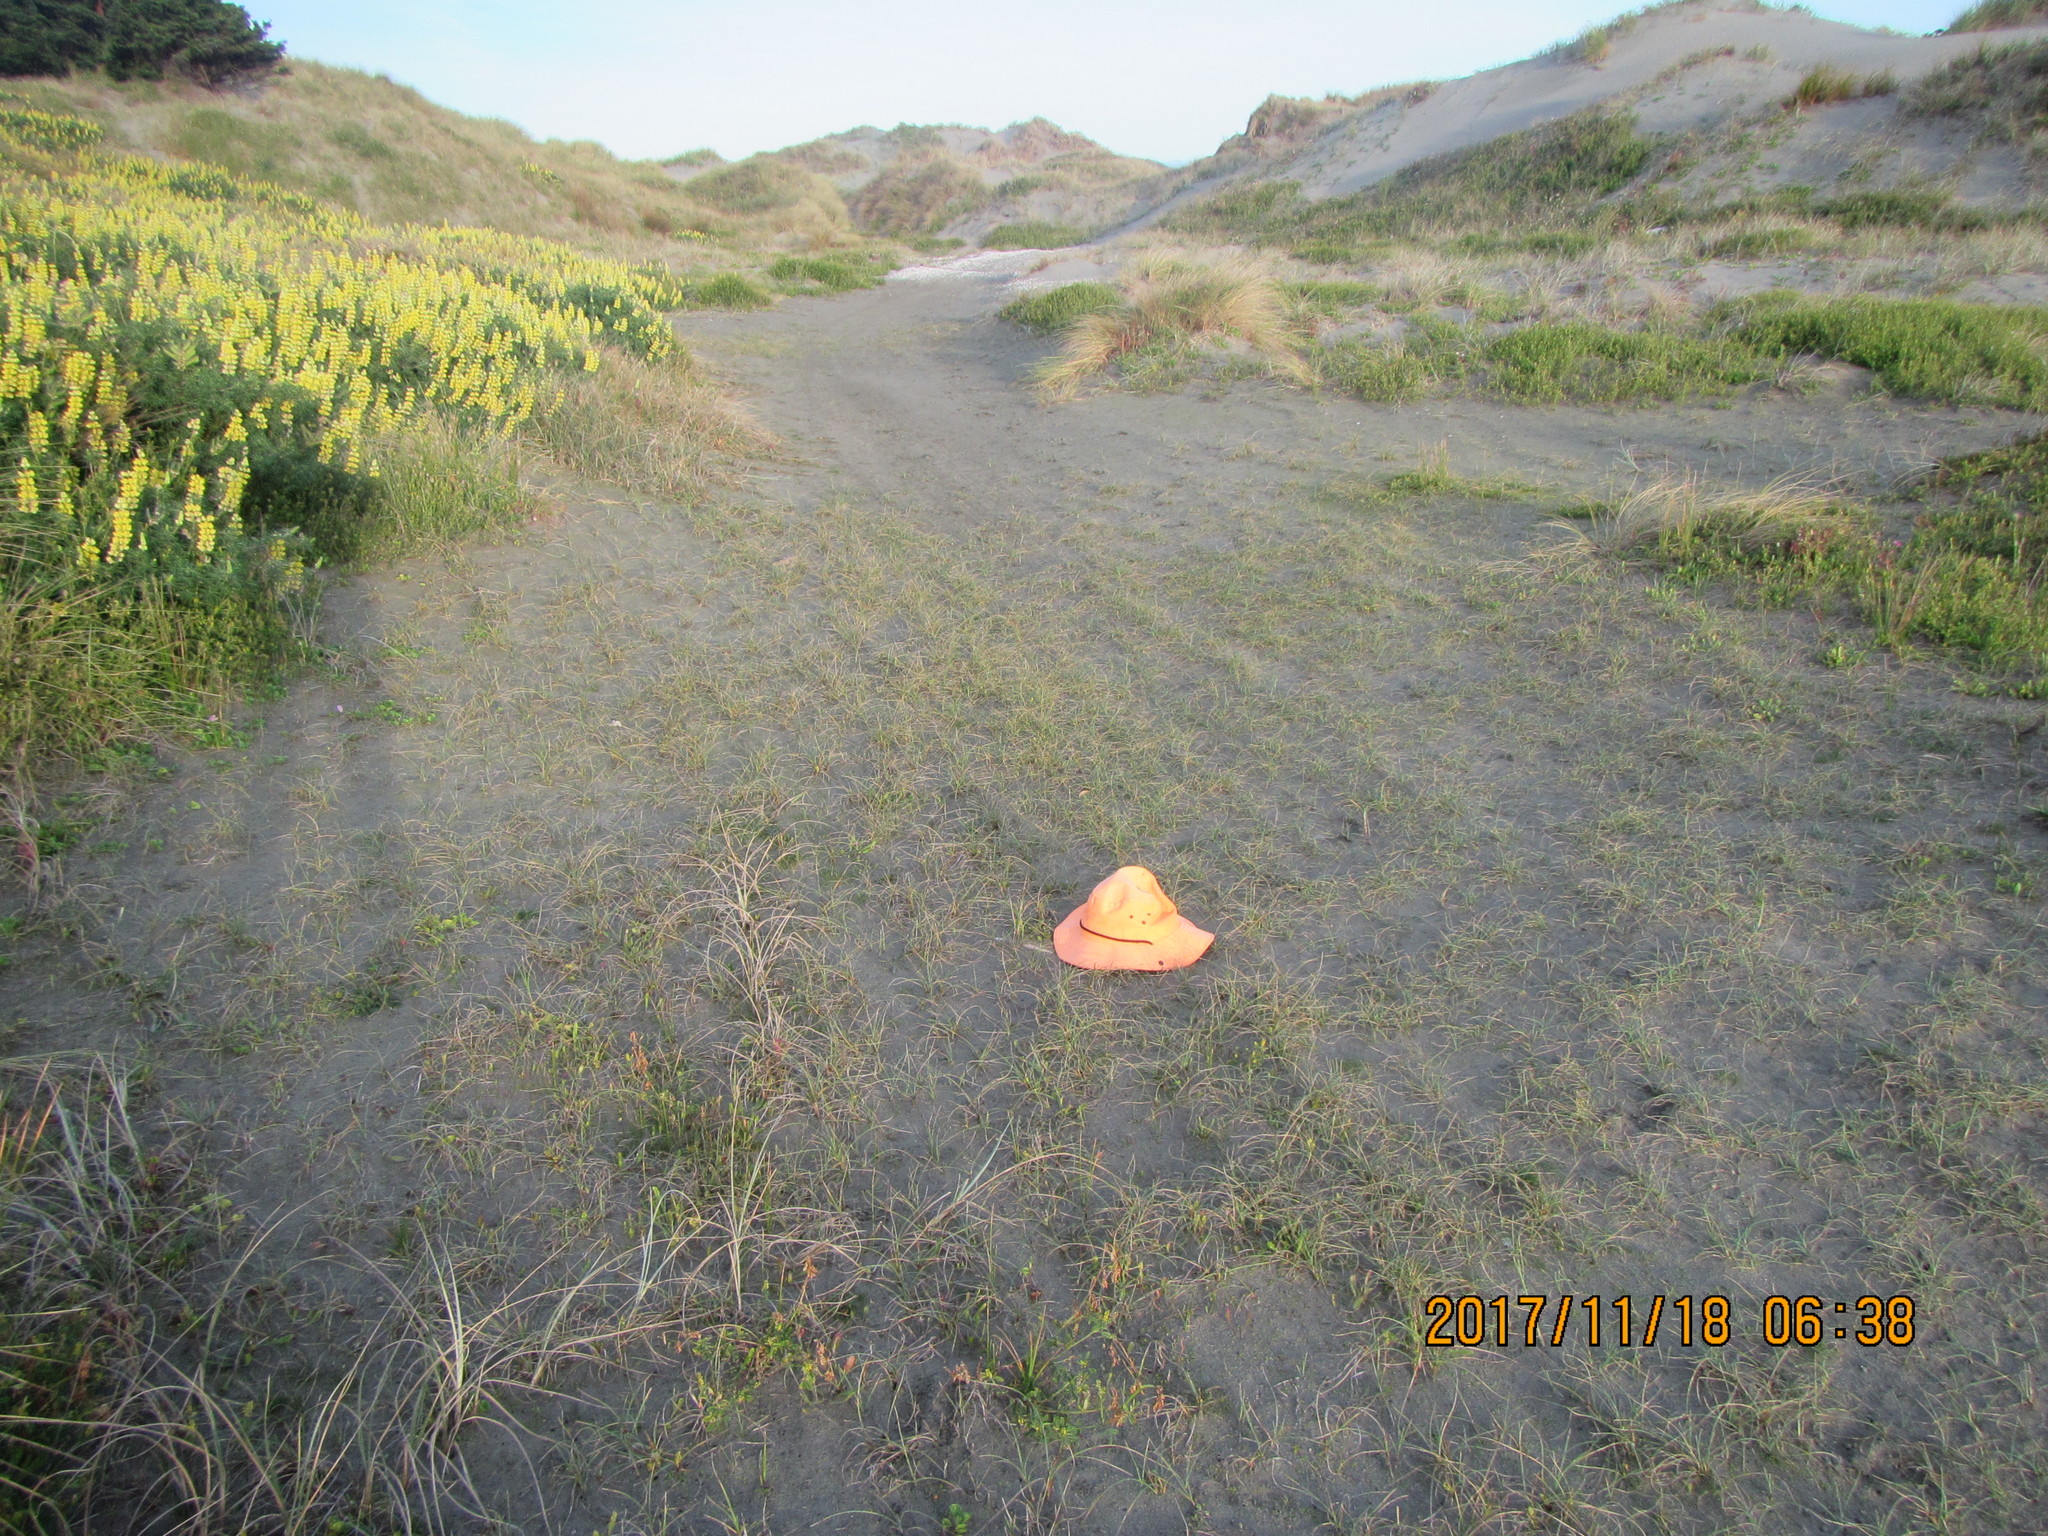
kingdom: Plantae
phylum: Tracheophyta
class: Liliopsida
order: Poales
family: Cyperaceae
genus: Carex
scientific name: Carex pumila
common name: Dwarf sedge
